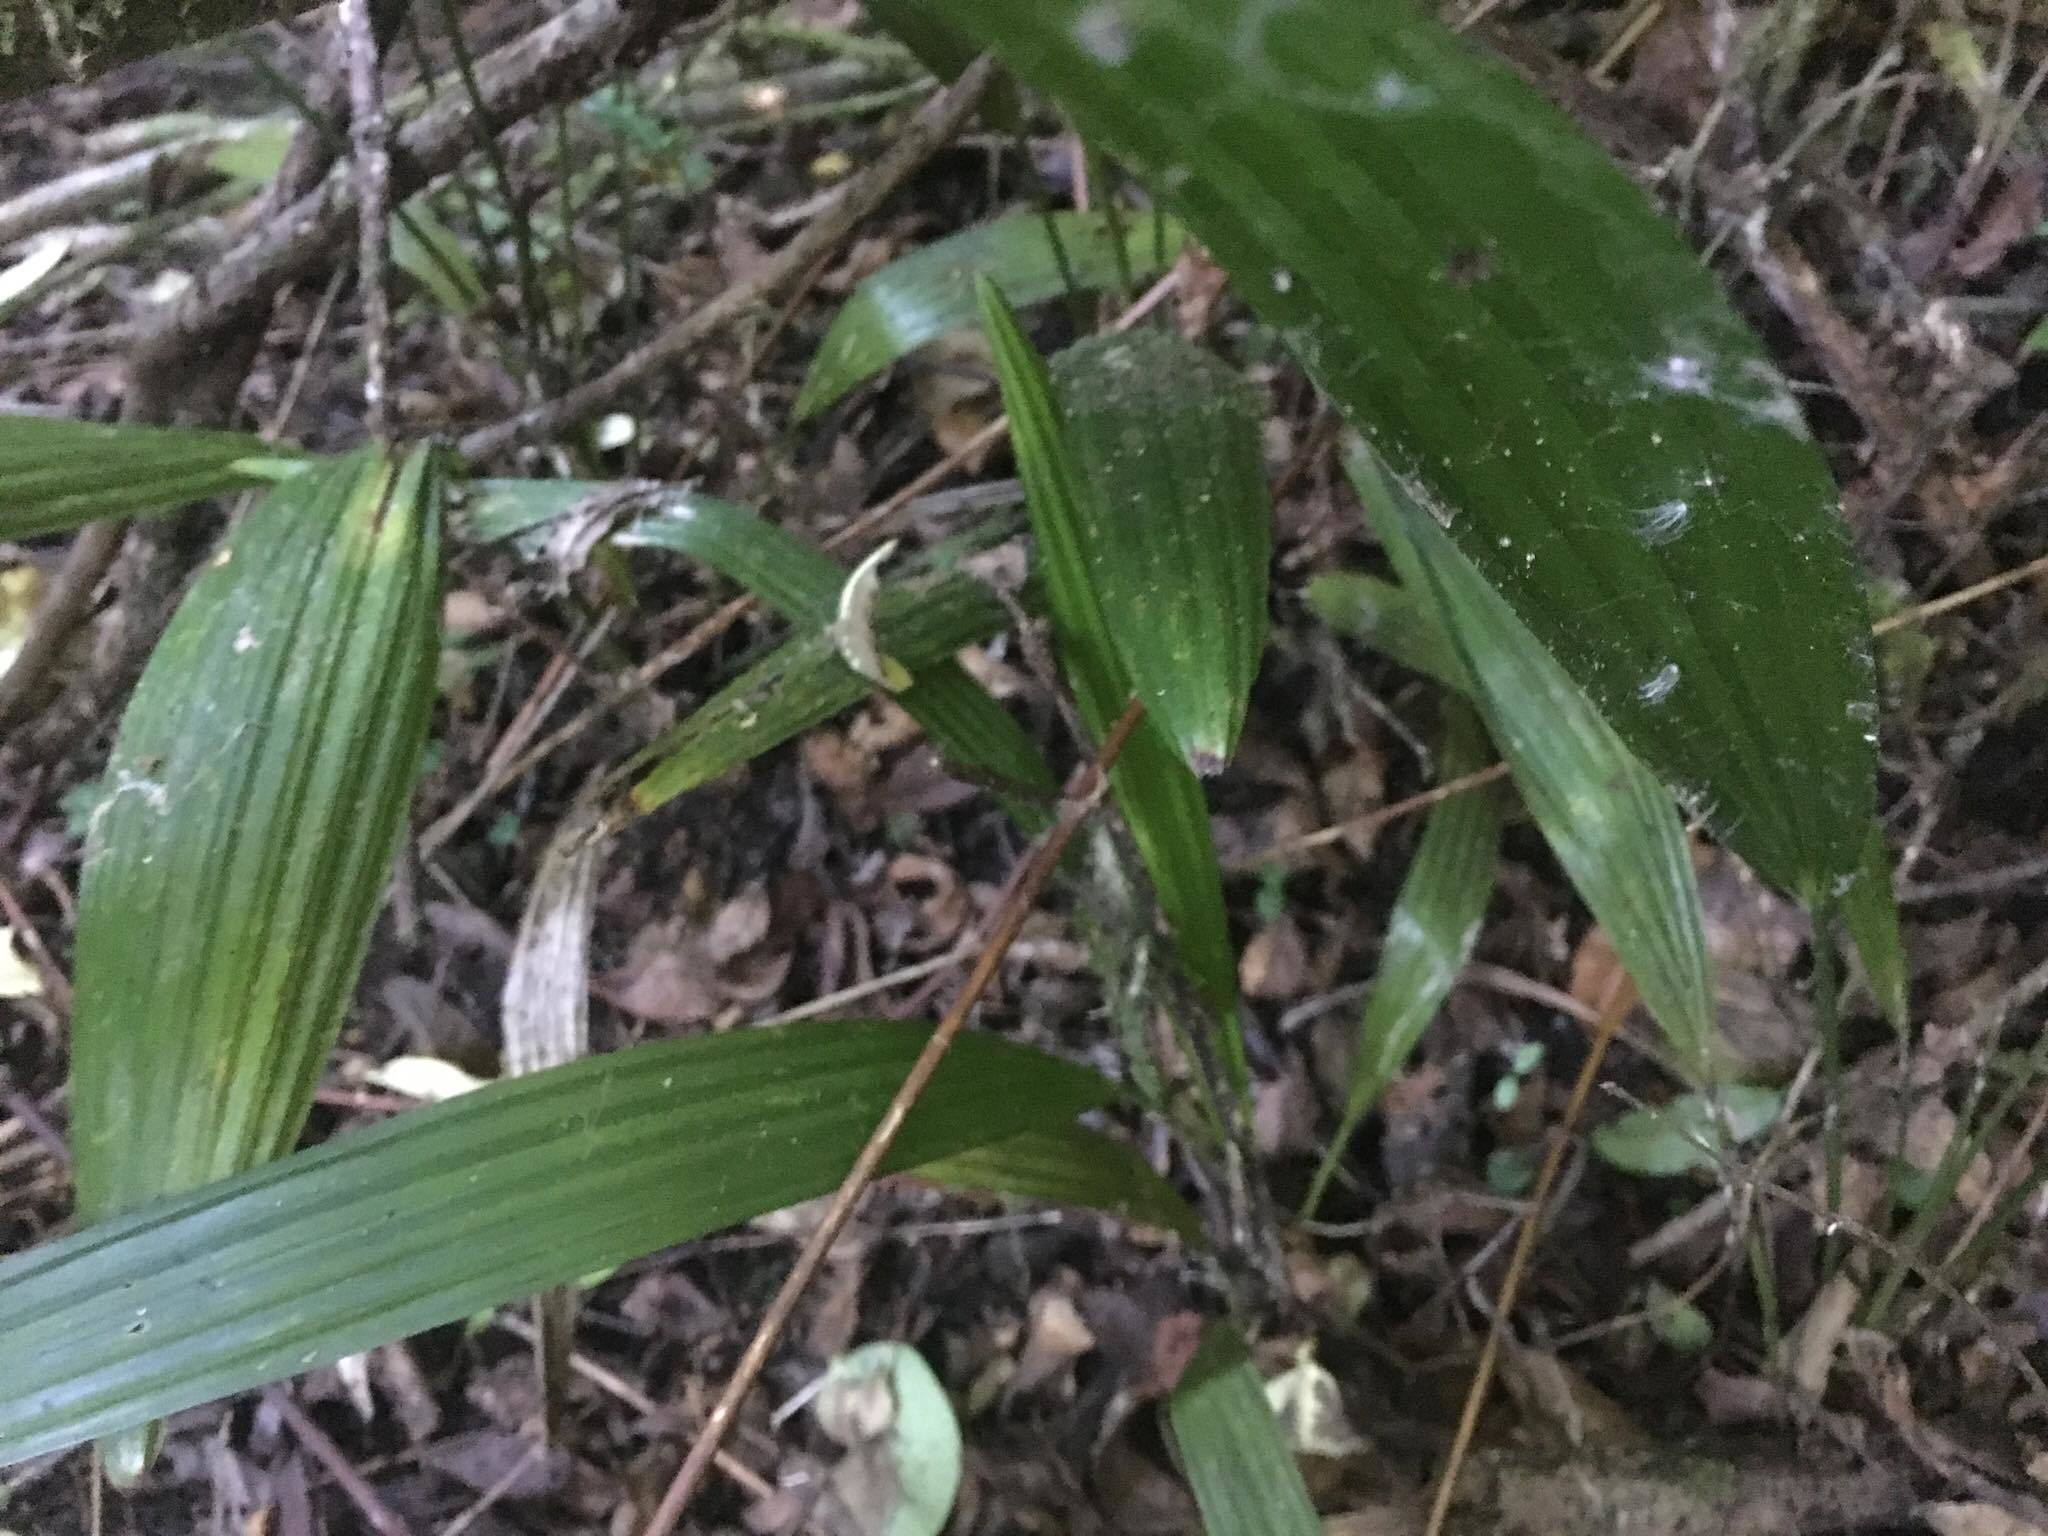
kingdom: Plantae
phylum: Tracheophyta
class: Liliopsida
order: Arecales
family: Arecaceae
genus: Trachycarpus
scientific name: Trachycarpus fortunei
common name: Chusan palm
